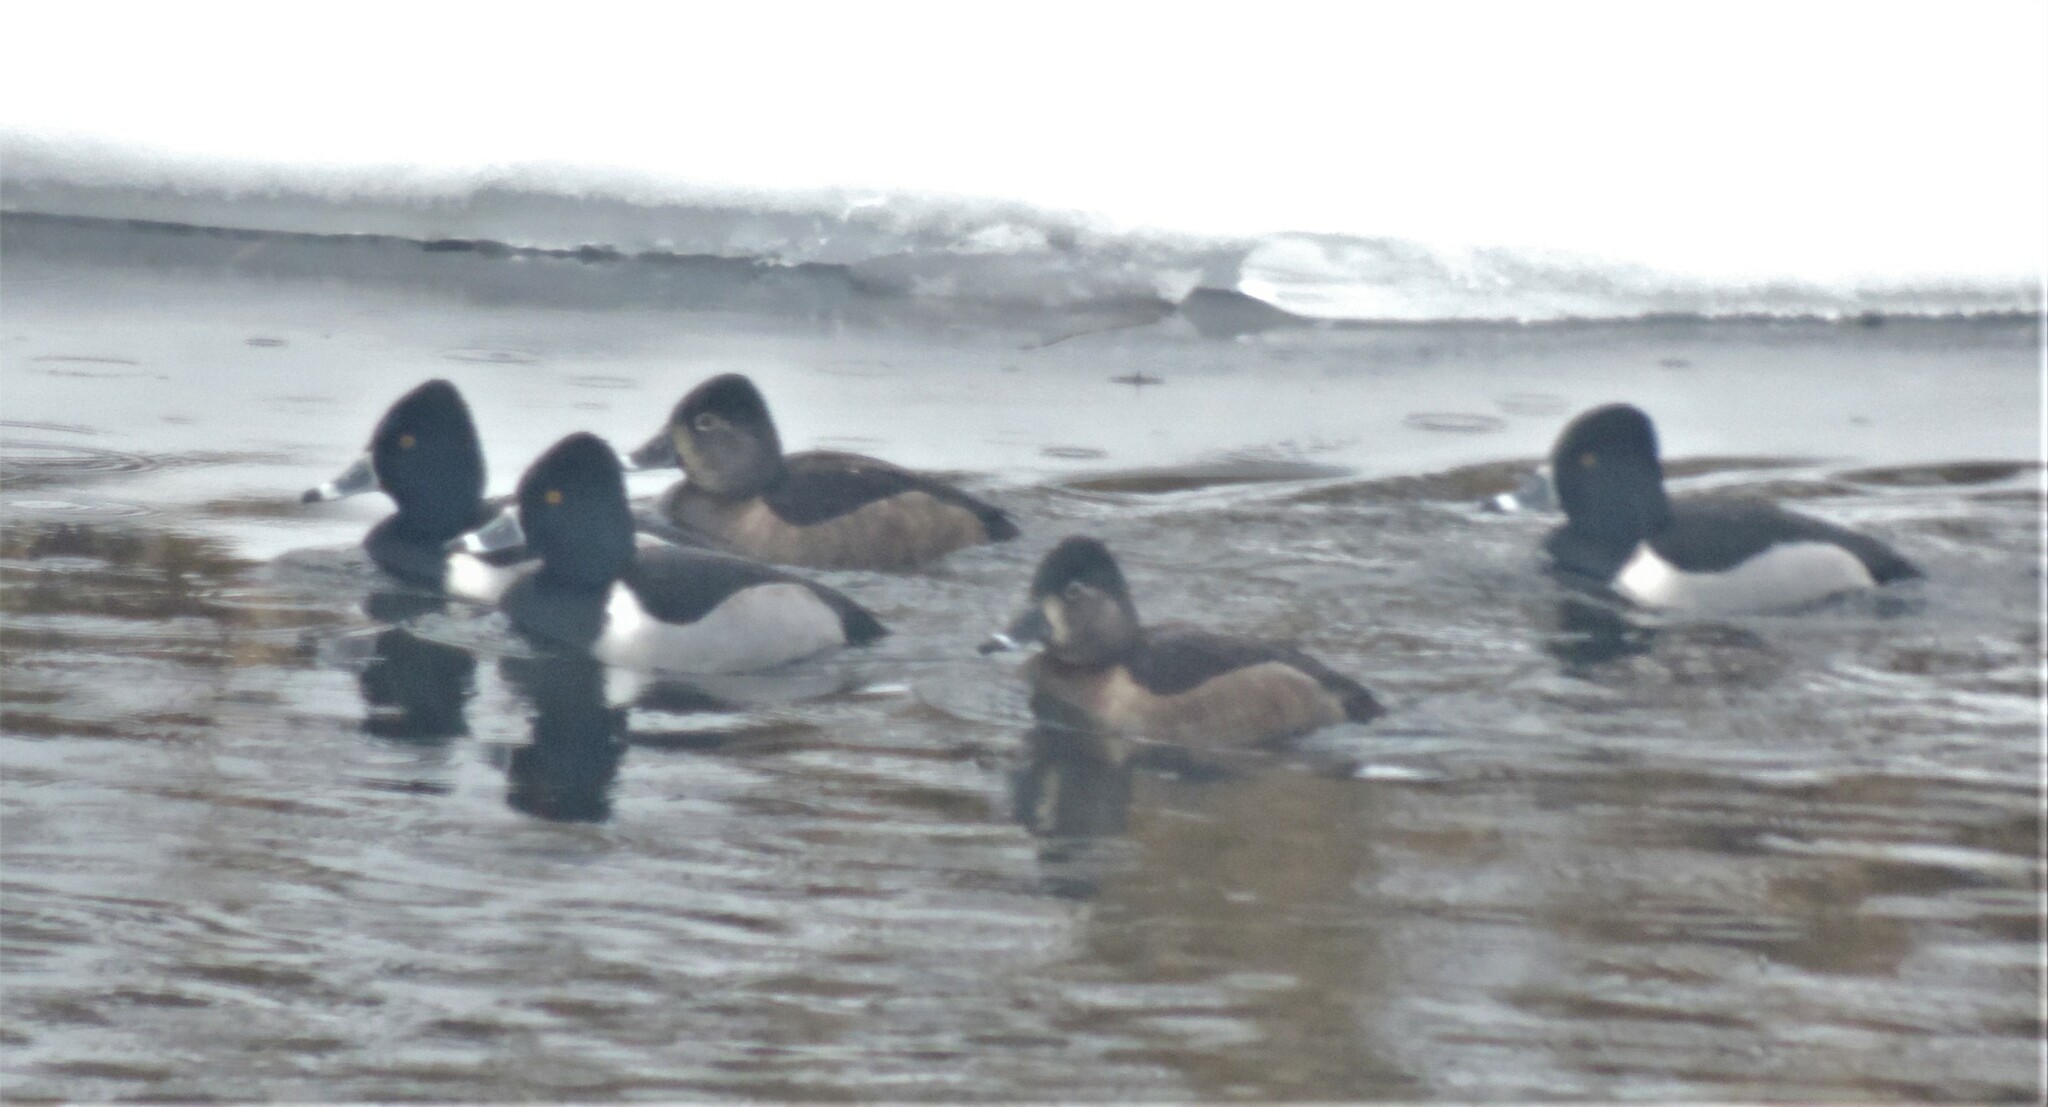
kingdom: Animalia
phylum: Chordata
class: Aves
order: Anseriformes
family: Anatidae
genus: Aythya
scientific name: Aythya collaris
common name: Ring-necked duck
